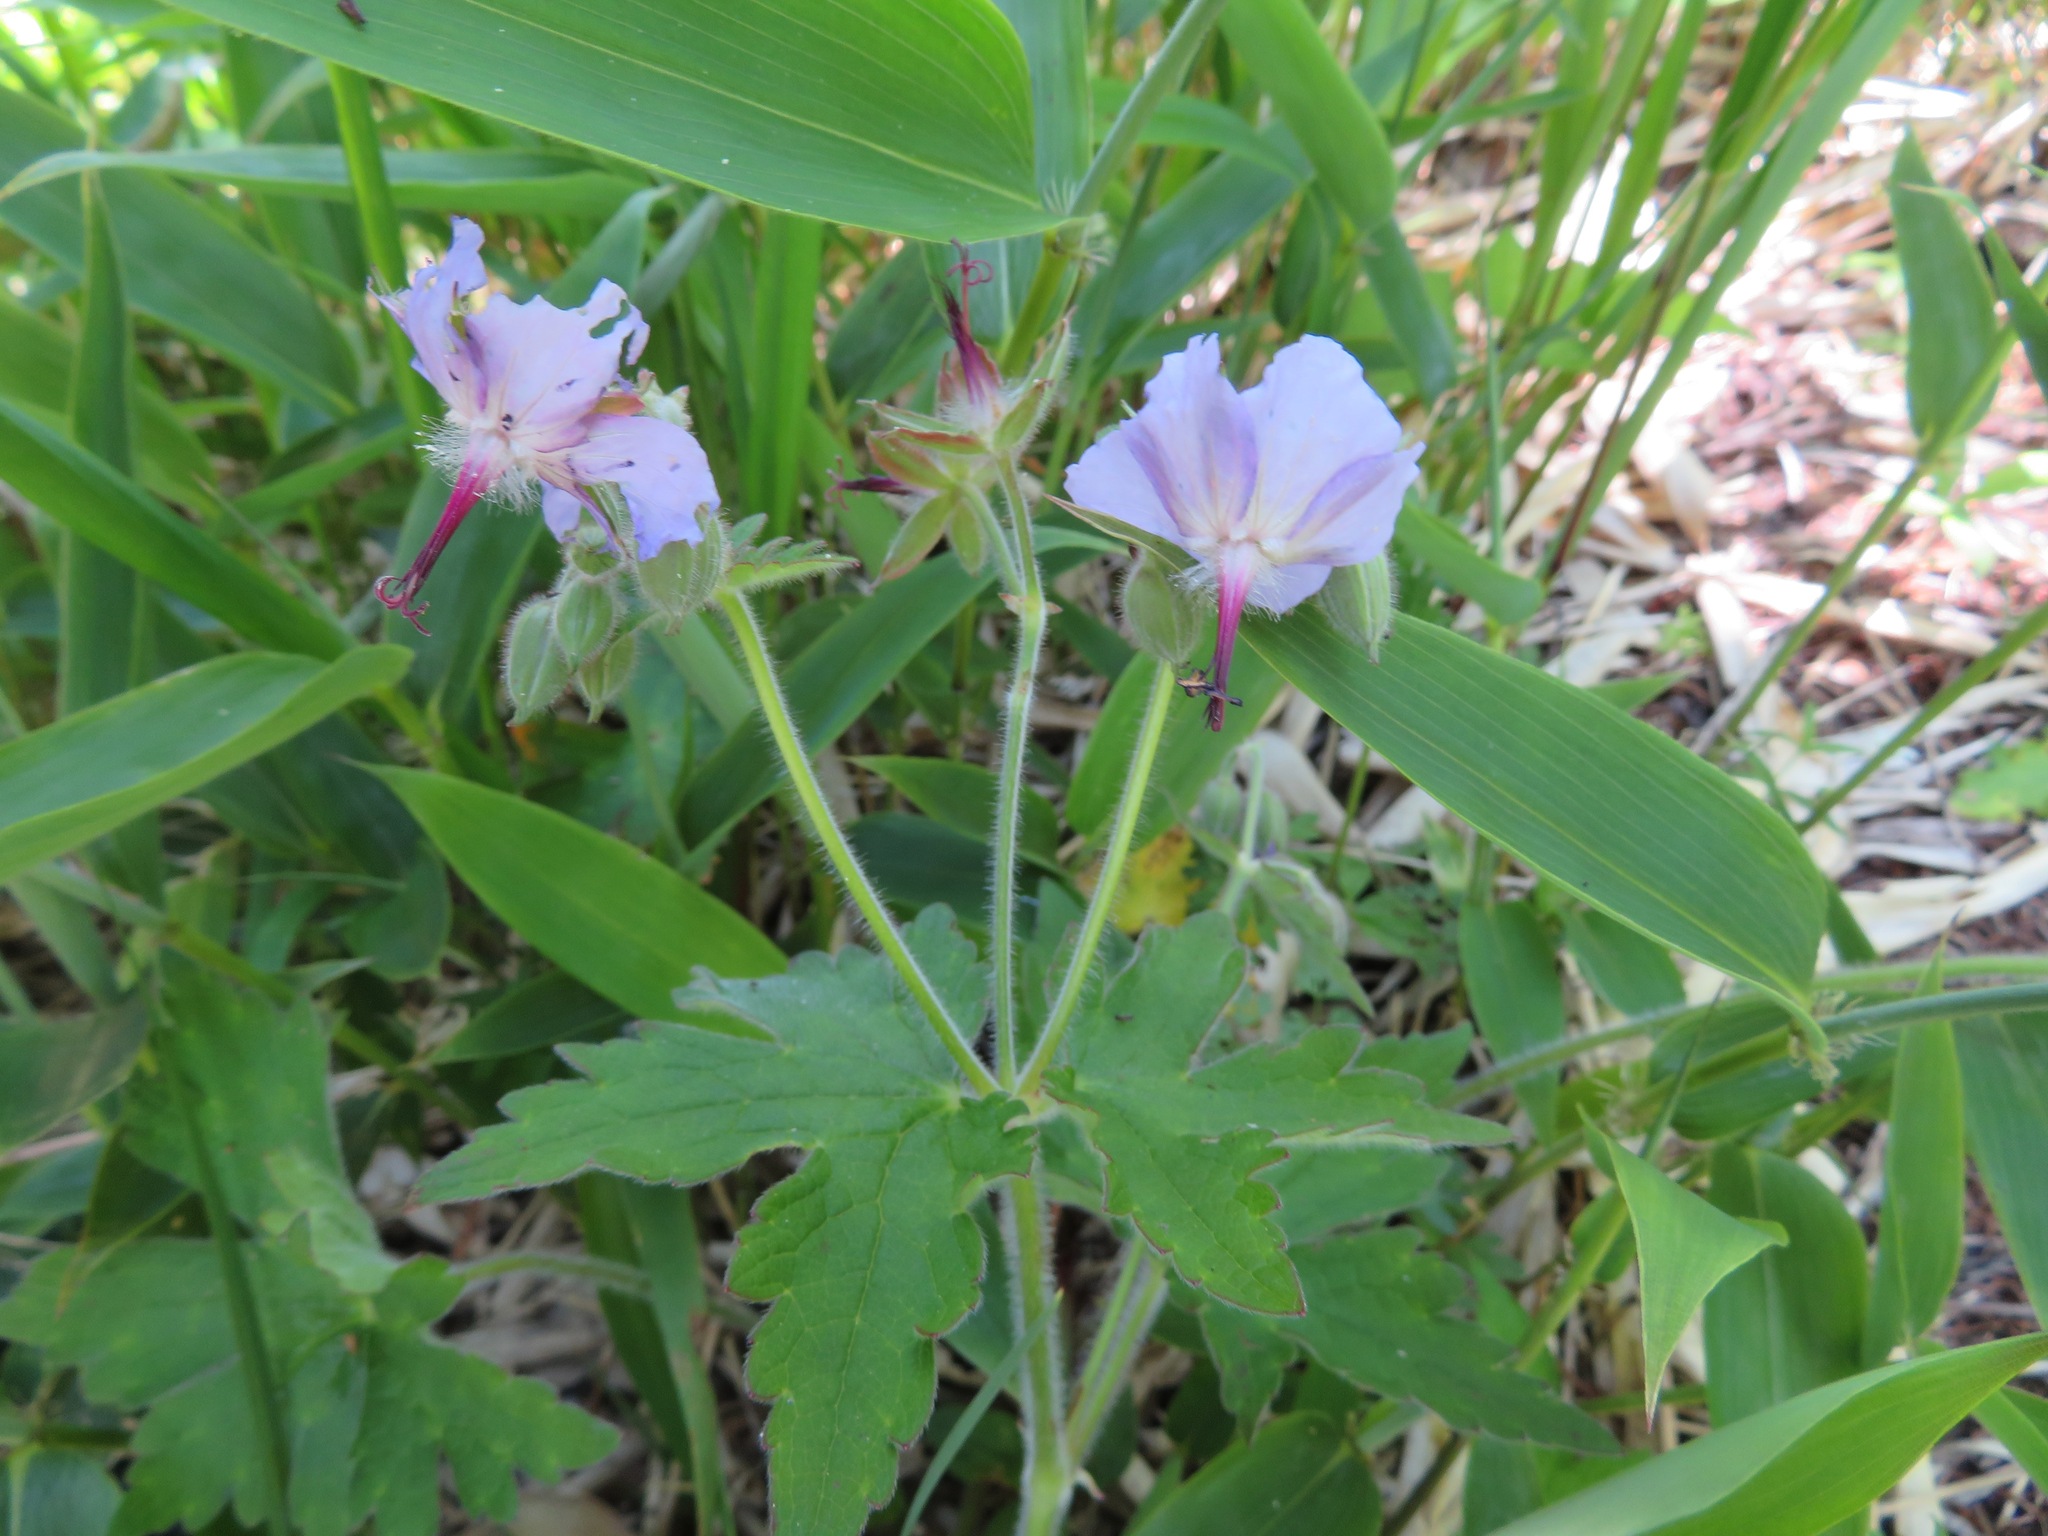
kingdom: Plantae
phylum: Tracheophyta
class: Magnoliopsida
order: Geraniales
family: Geraniaceae
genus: Geranium
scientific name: Geranium platyanthum
